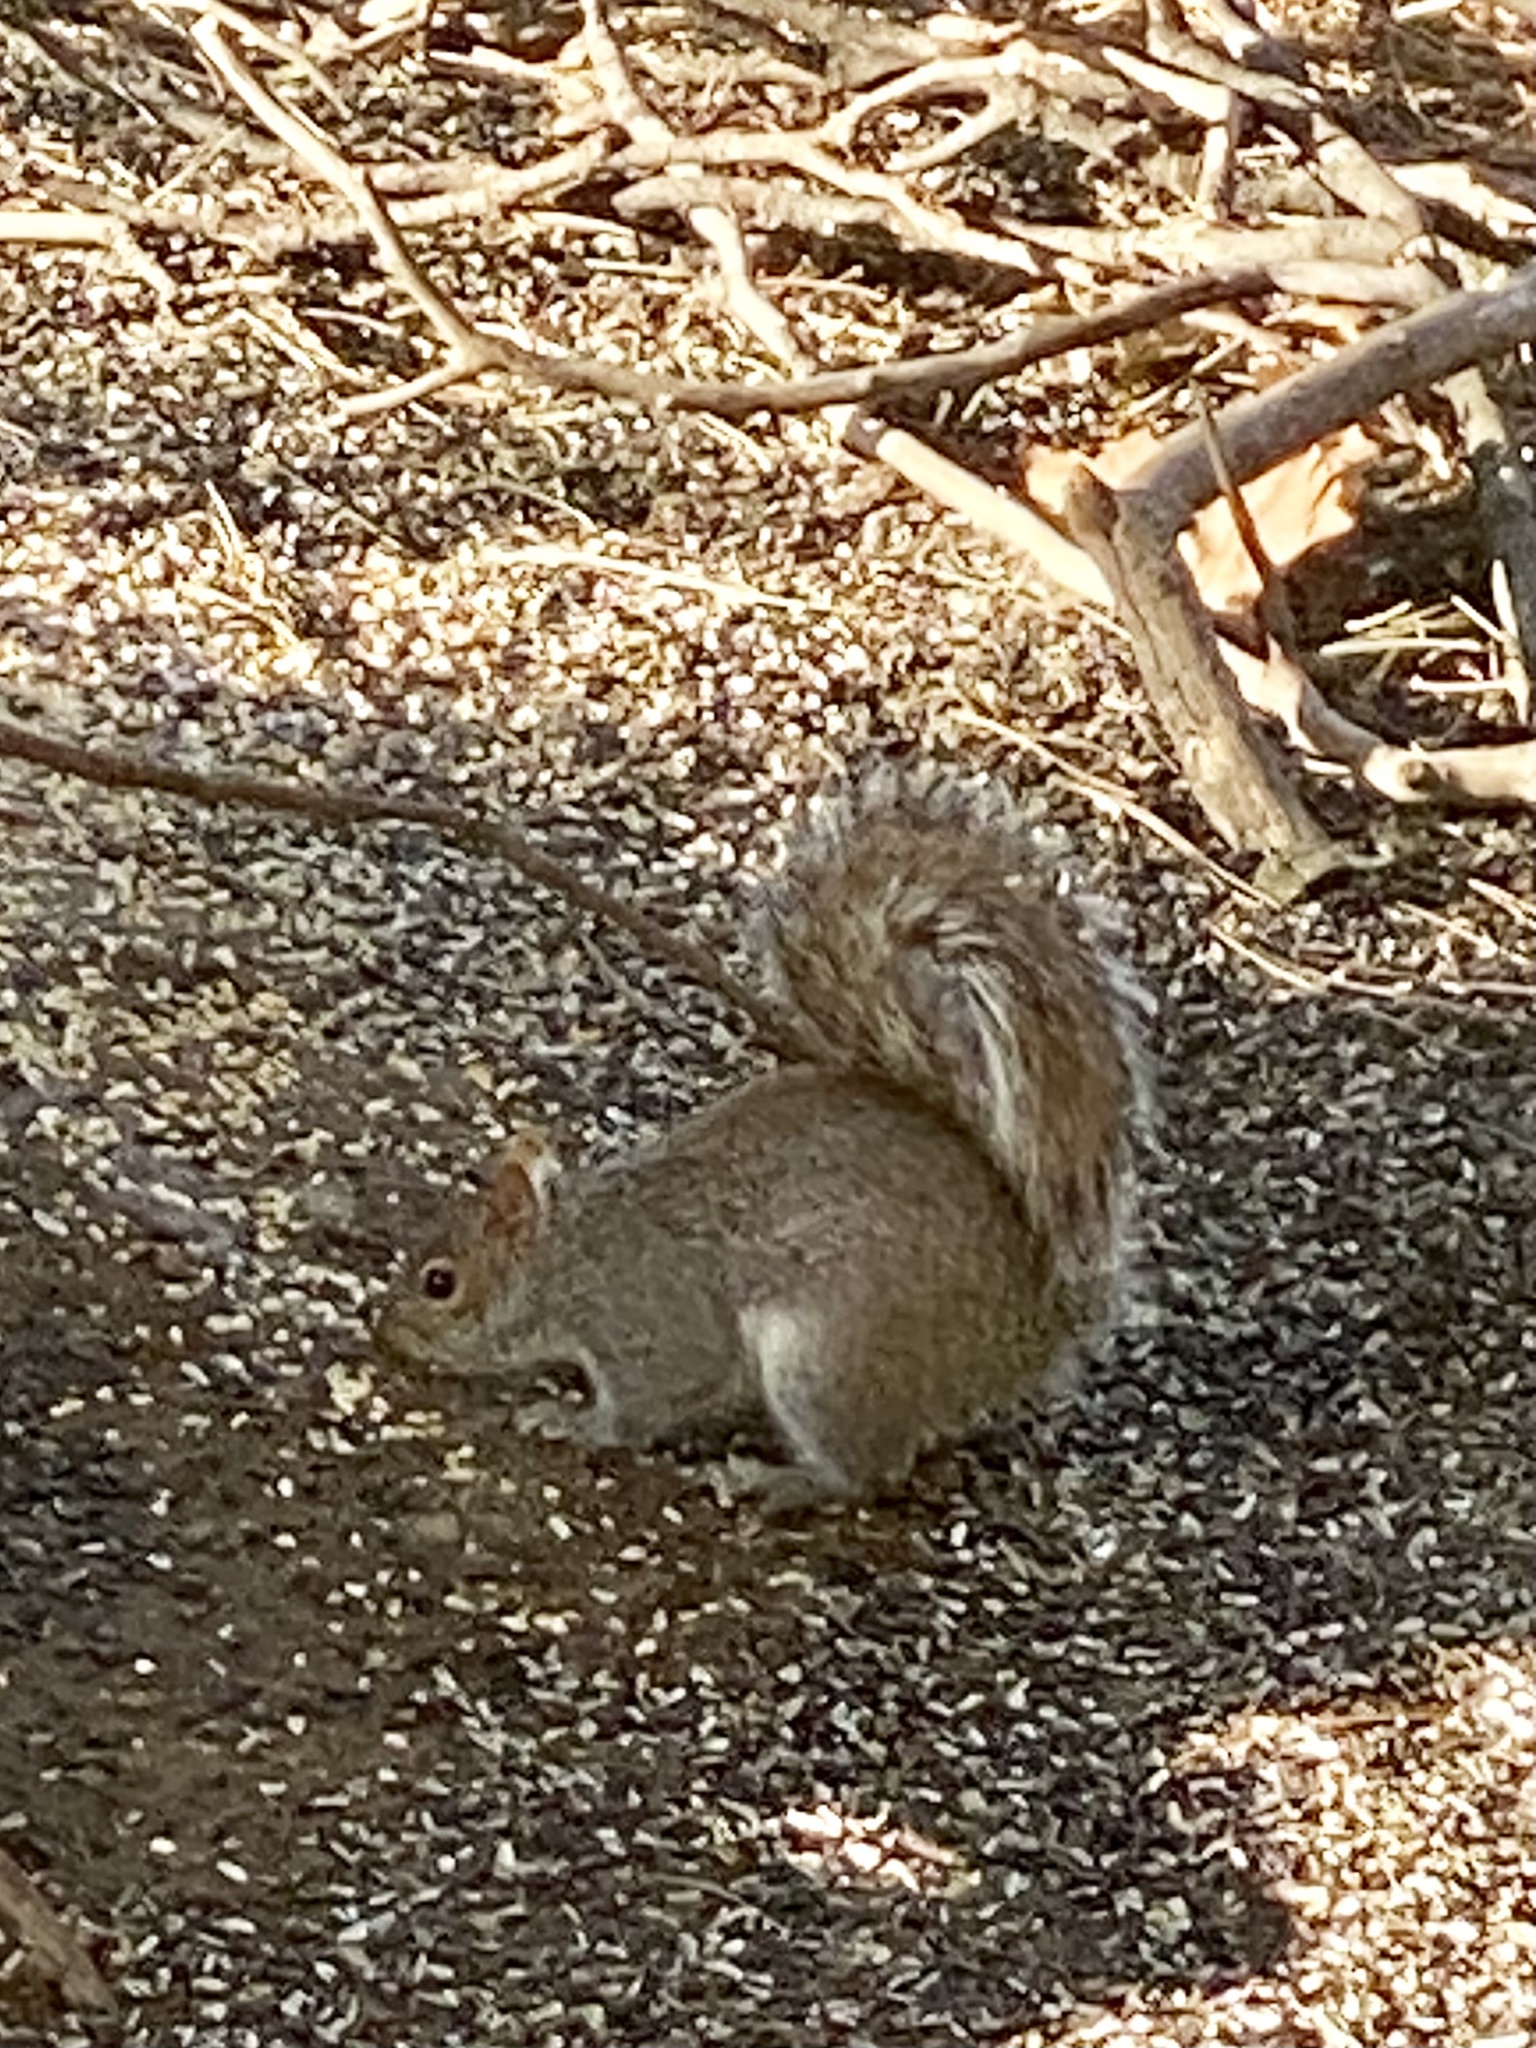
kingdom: Animalia
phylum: Chordata
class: Mammalia
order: Rodentia
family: Sciuridae
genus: Sciurus
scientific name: Sciurus carolinensis
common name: Eastern gray squirrel
